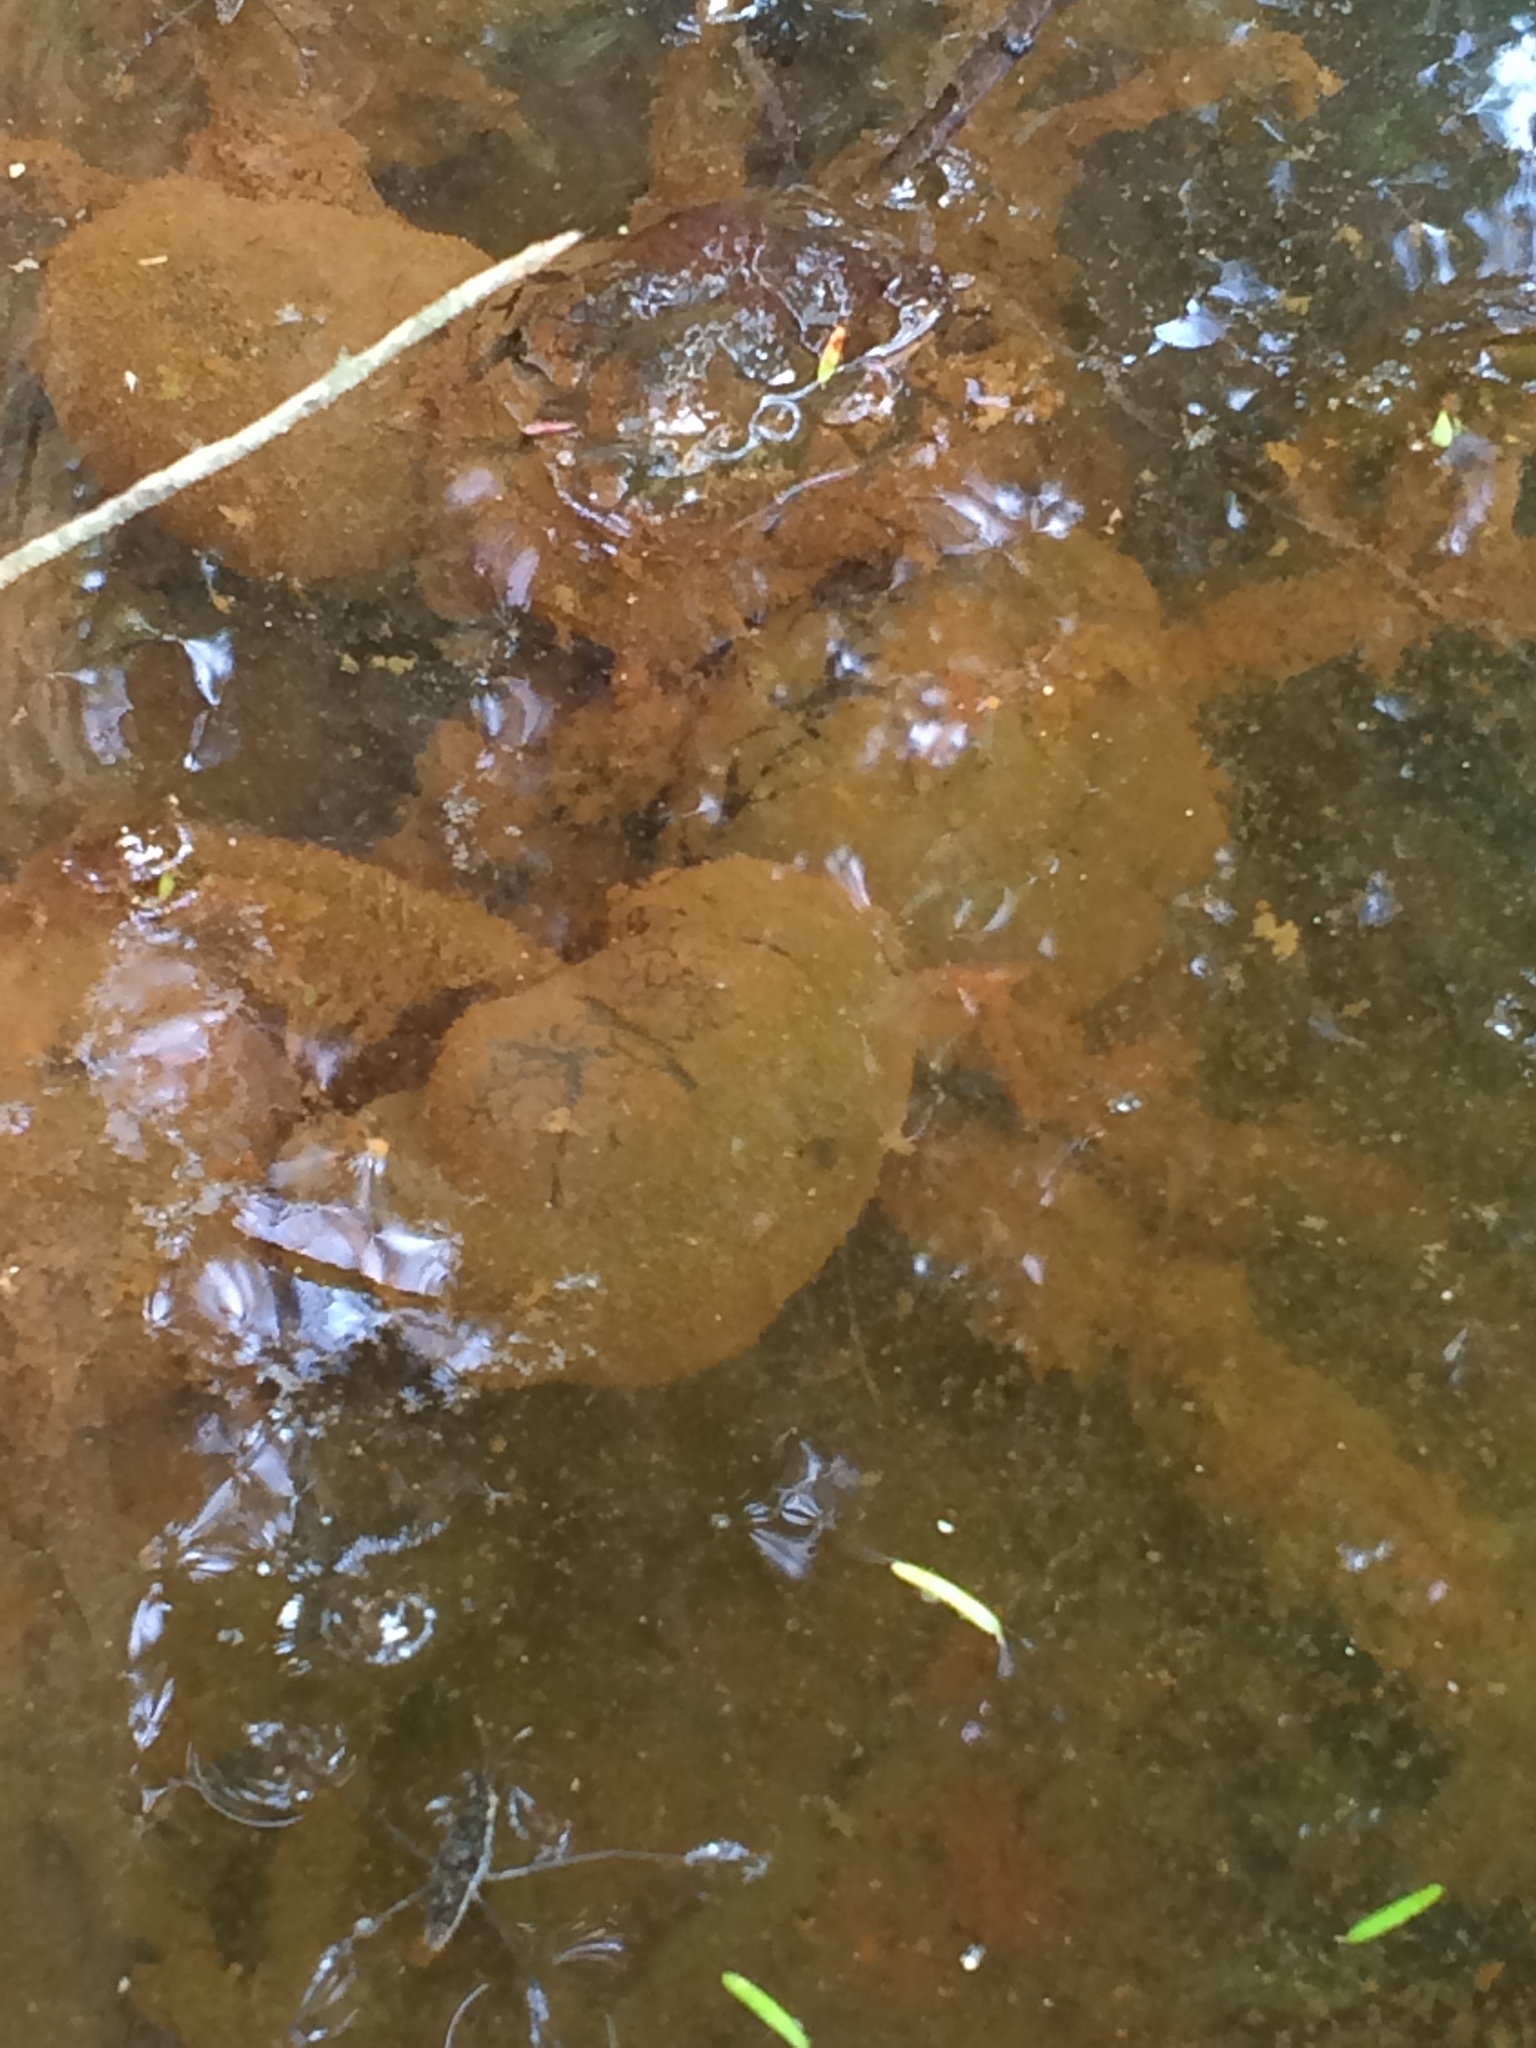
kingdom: Animalia
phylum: Chordata
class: Amphibia
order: Caudata
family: Ambystomatidae
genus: Ambystoma
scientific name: Ambystoma maculatum
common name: Spotted salamander
